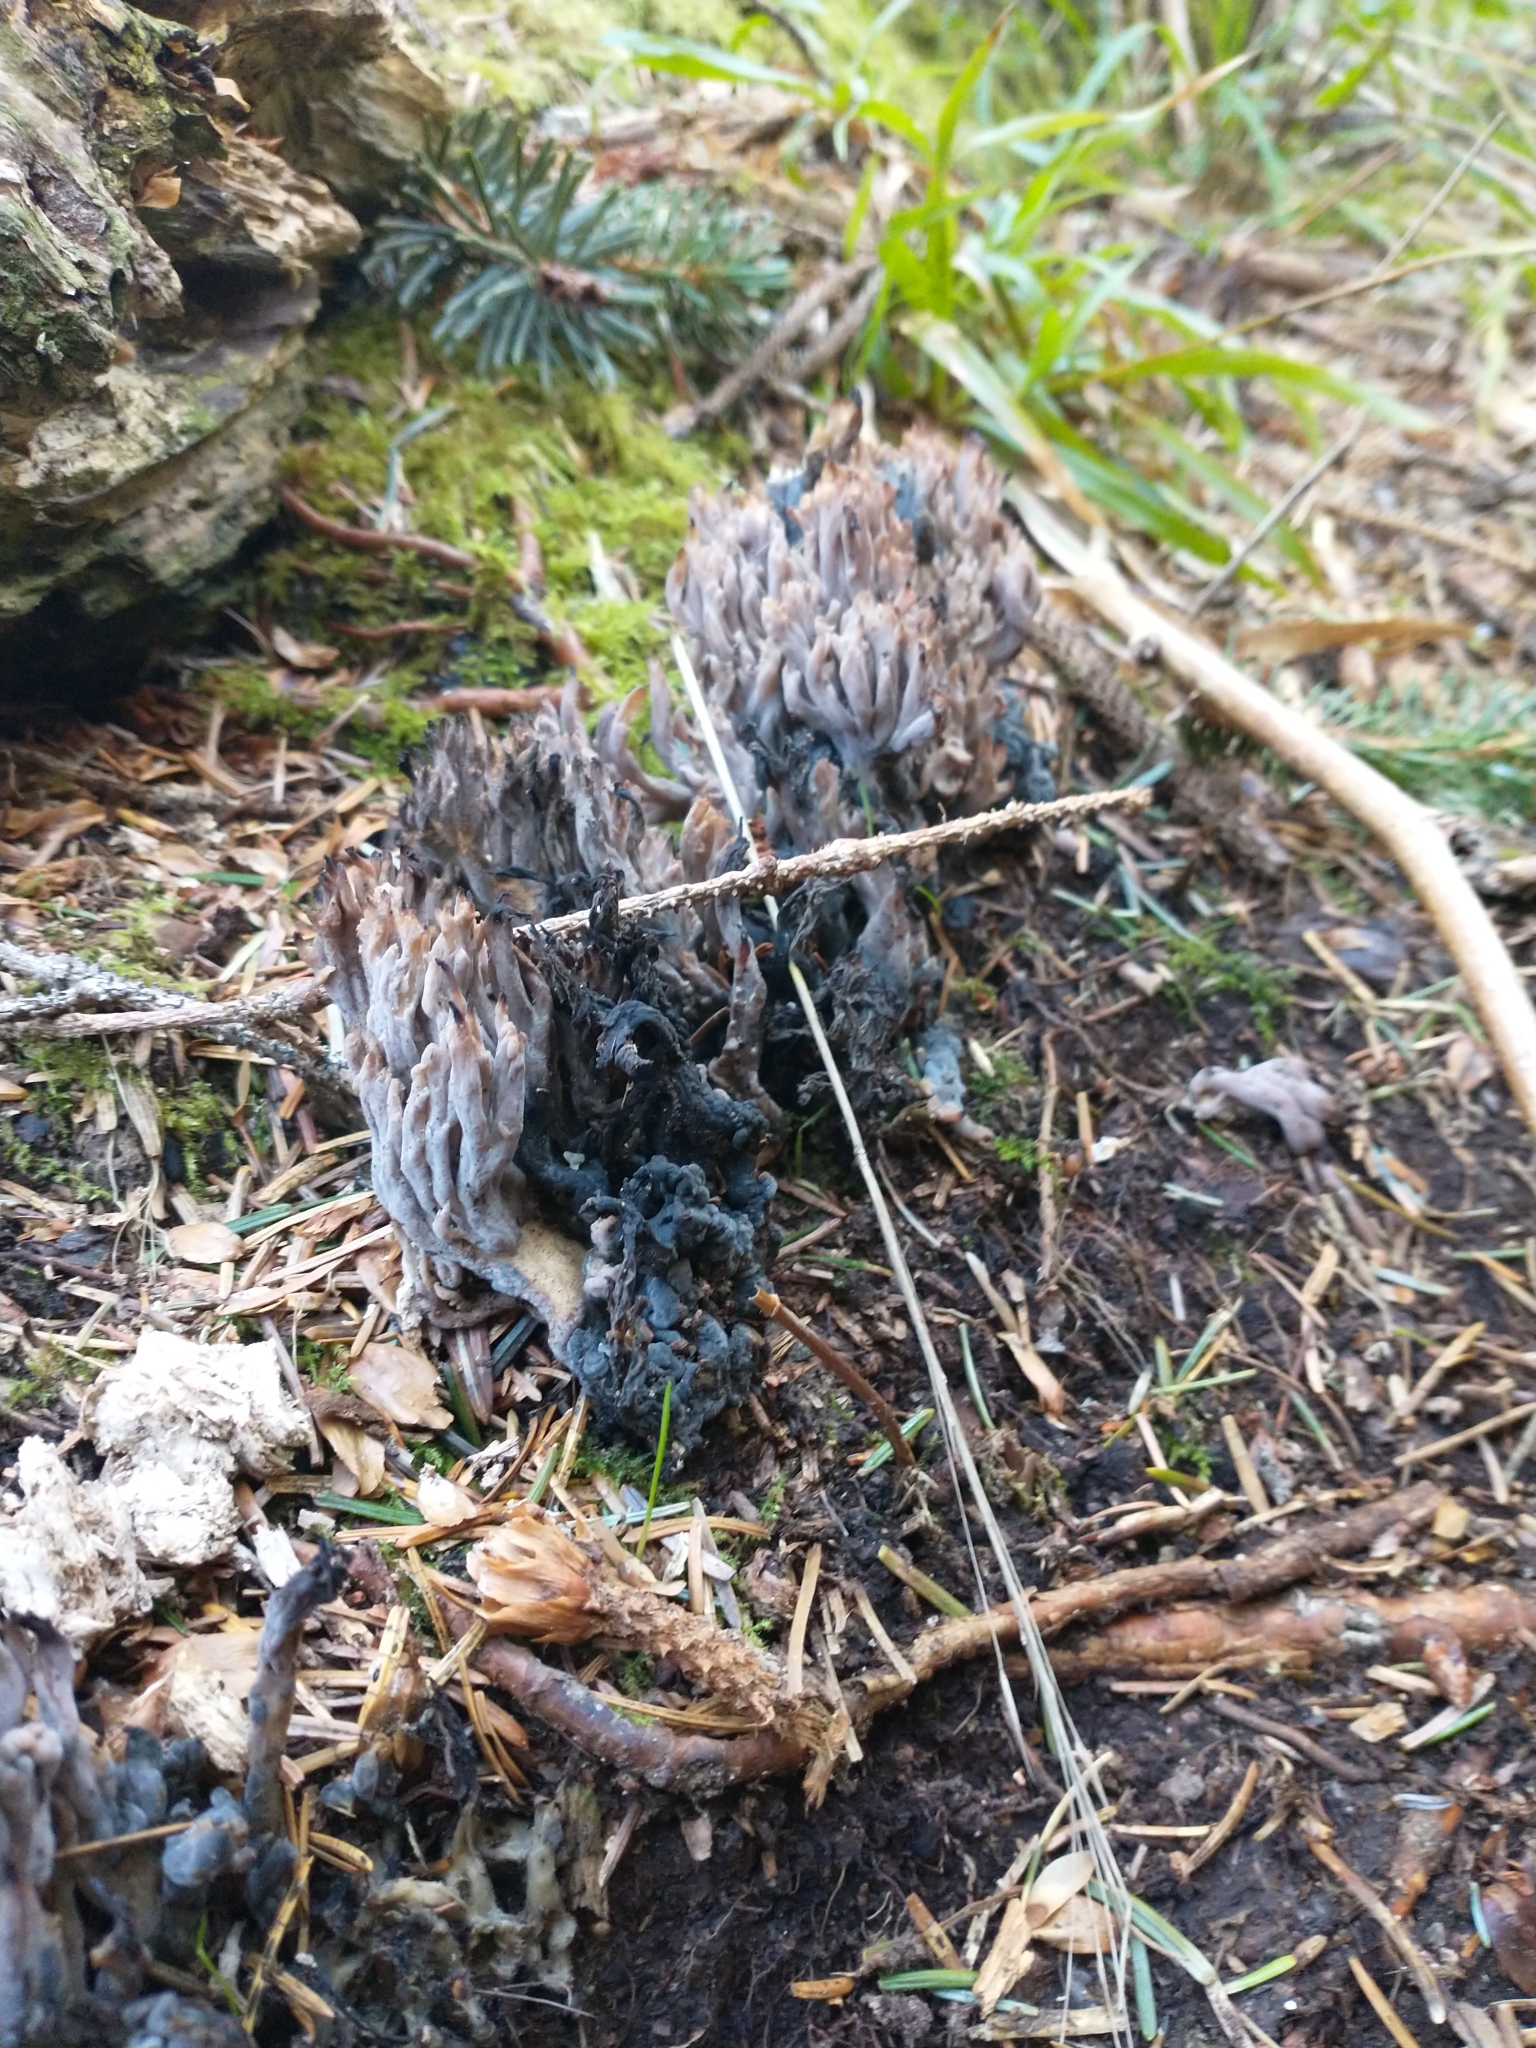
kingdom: Fungi
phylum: Ascomycota
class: Sordariomycetes
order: Sordariales
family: Helminthosphaeriaceae
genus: Helminthosphaeria
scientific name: Helminthosphaeria clavariarum
